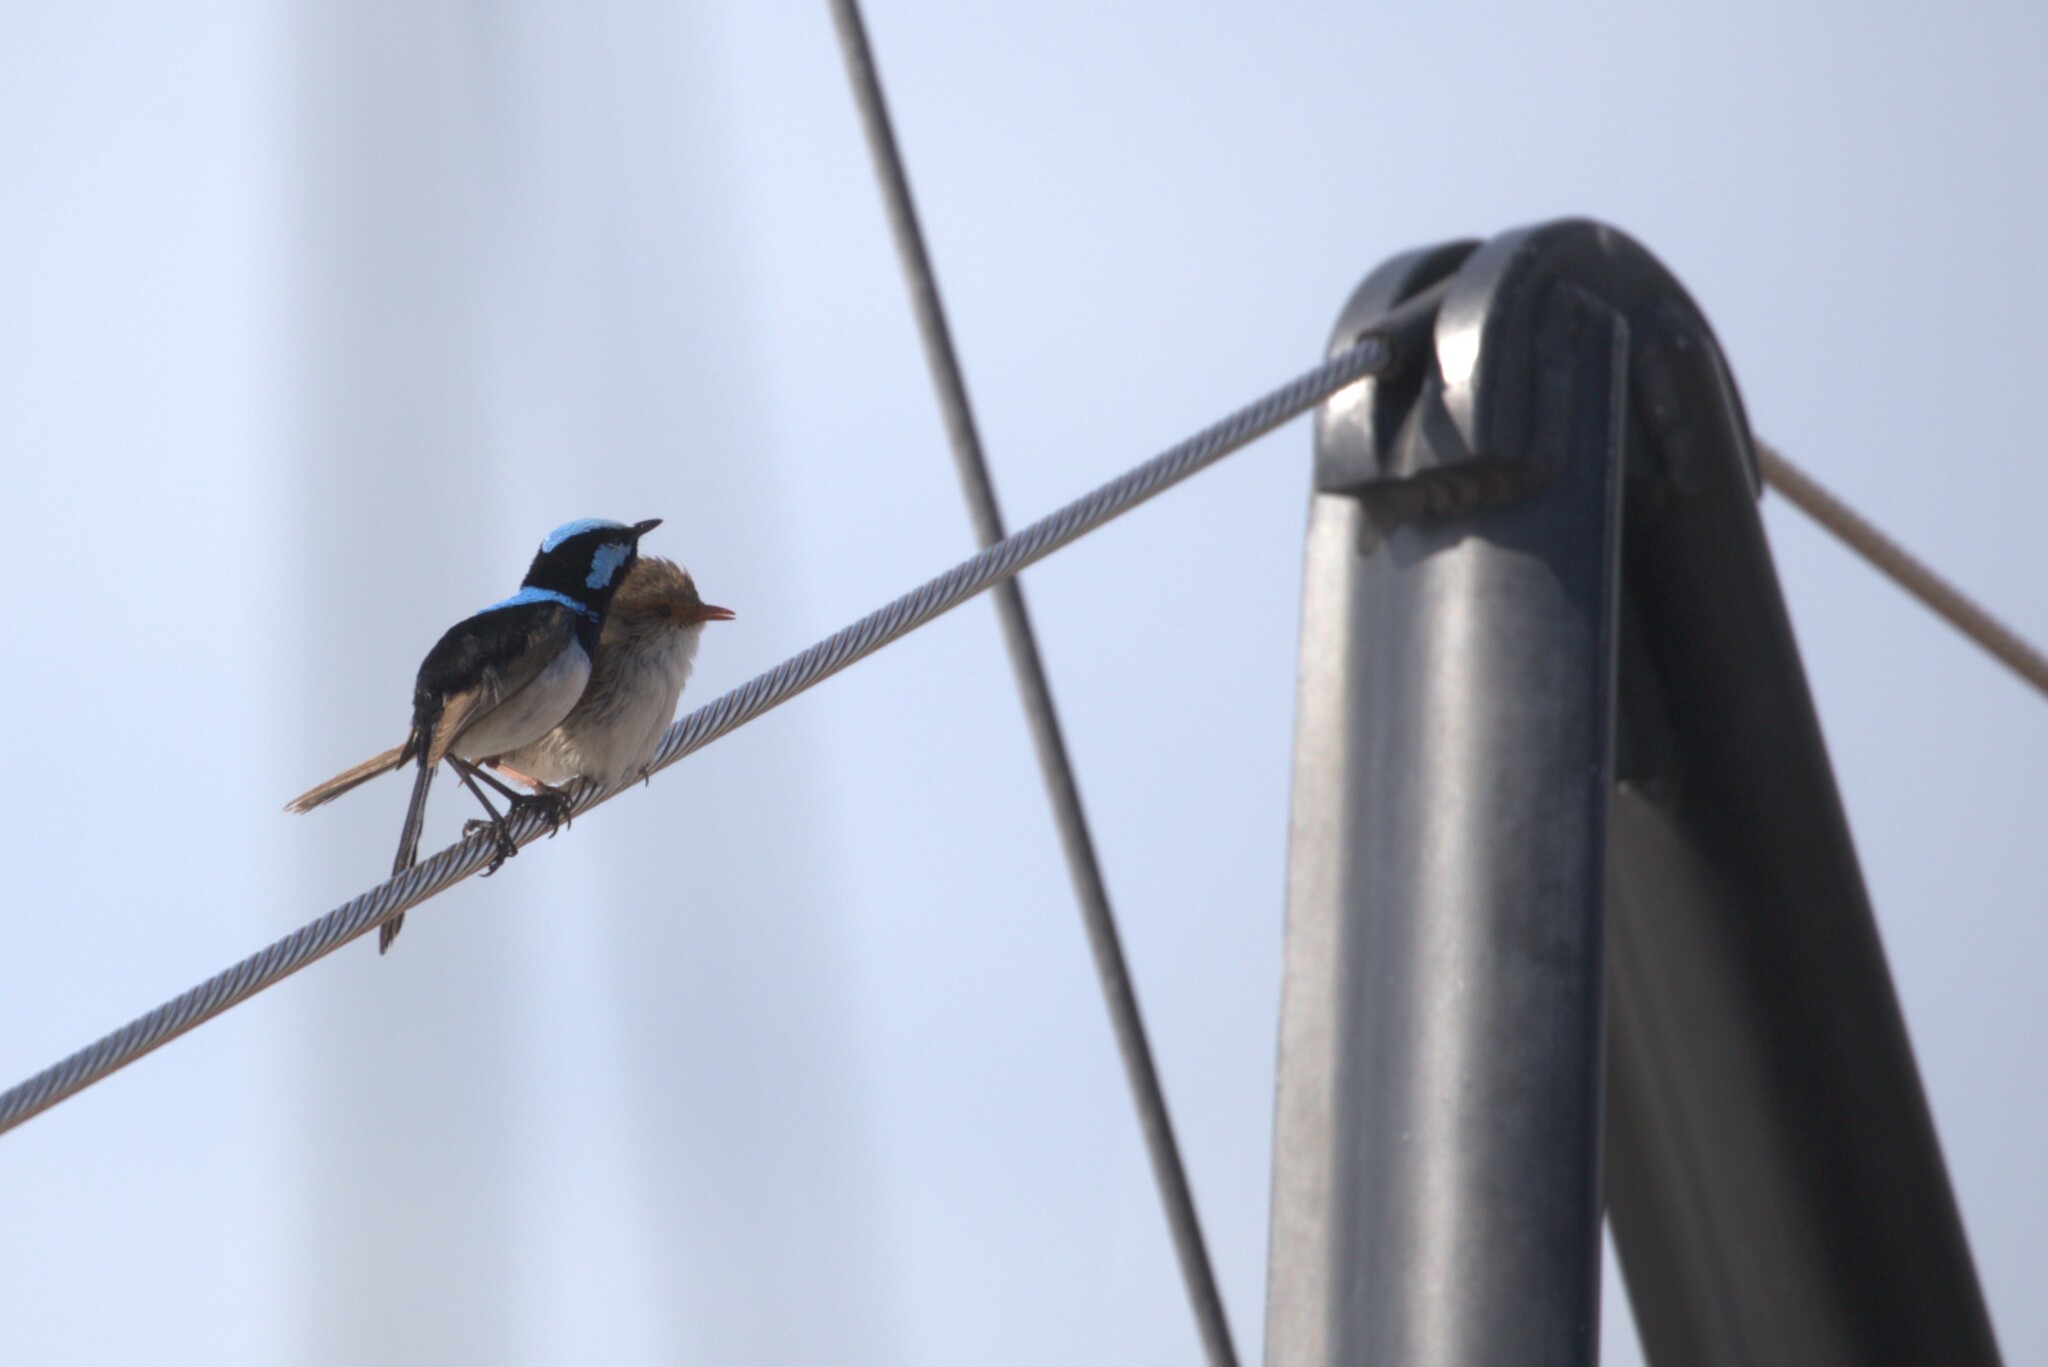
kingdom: Animalia
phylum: Chordata
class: Aves
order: Passeriformes
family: Maluridae
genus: Malurus
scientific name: Malurus cyaneus
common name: Superb fairywren
